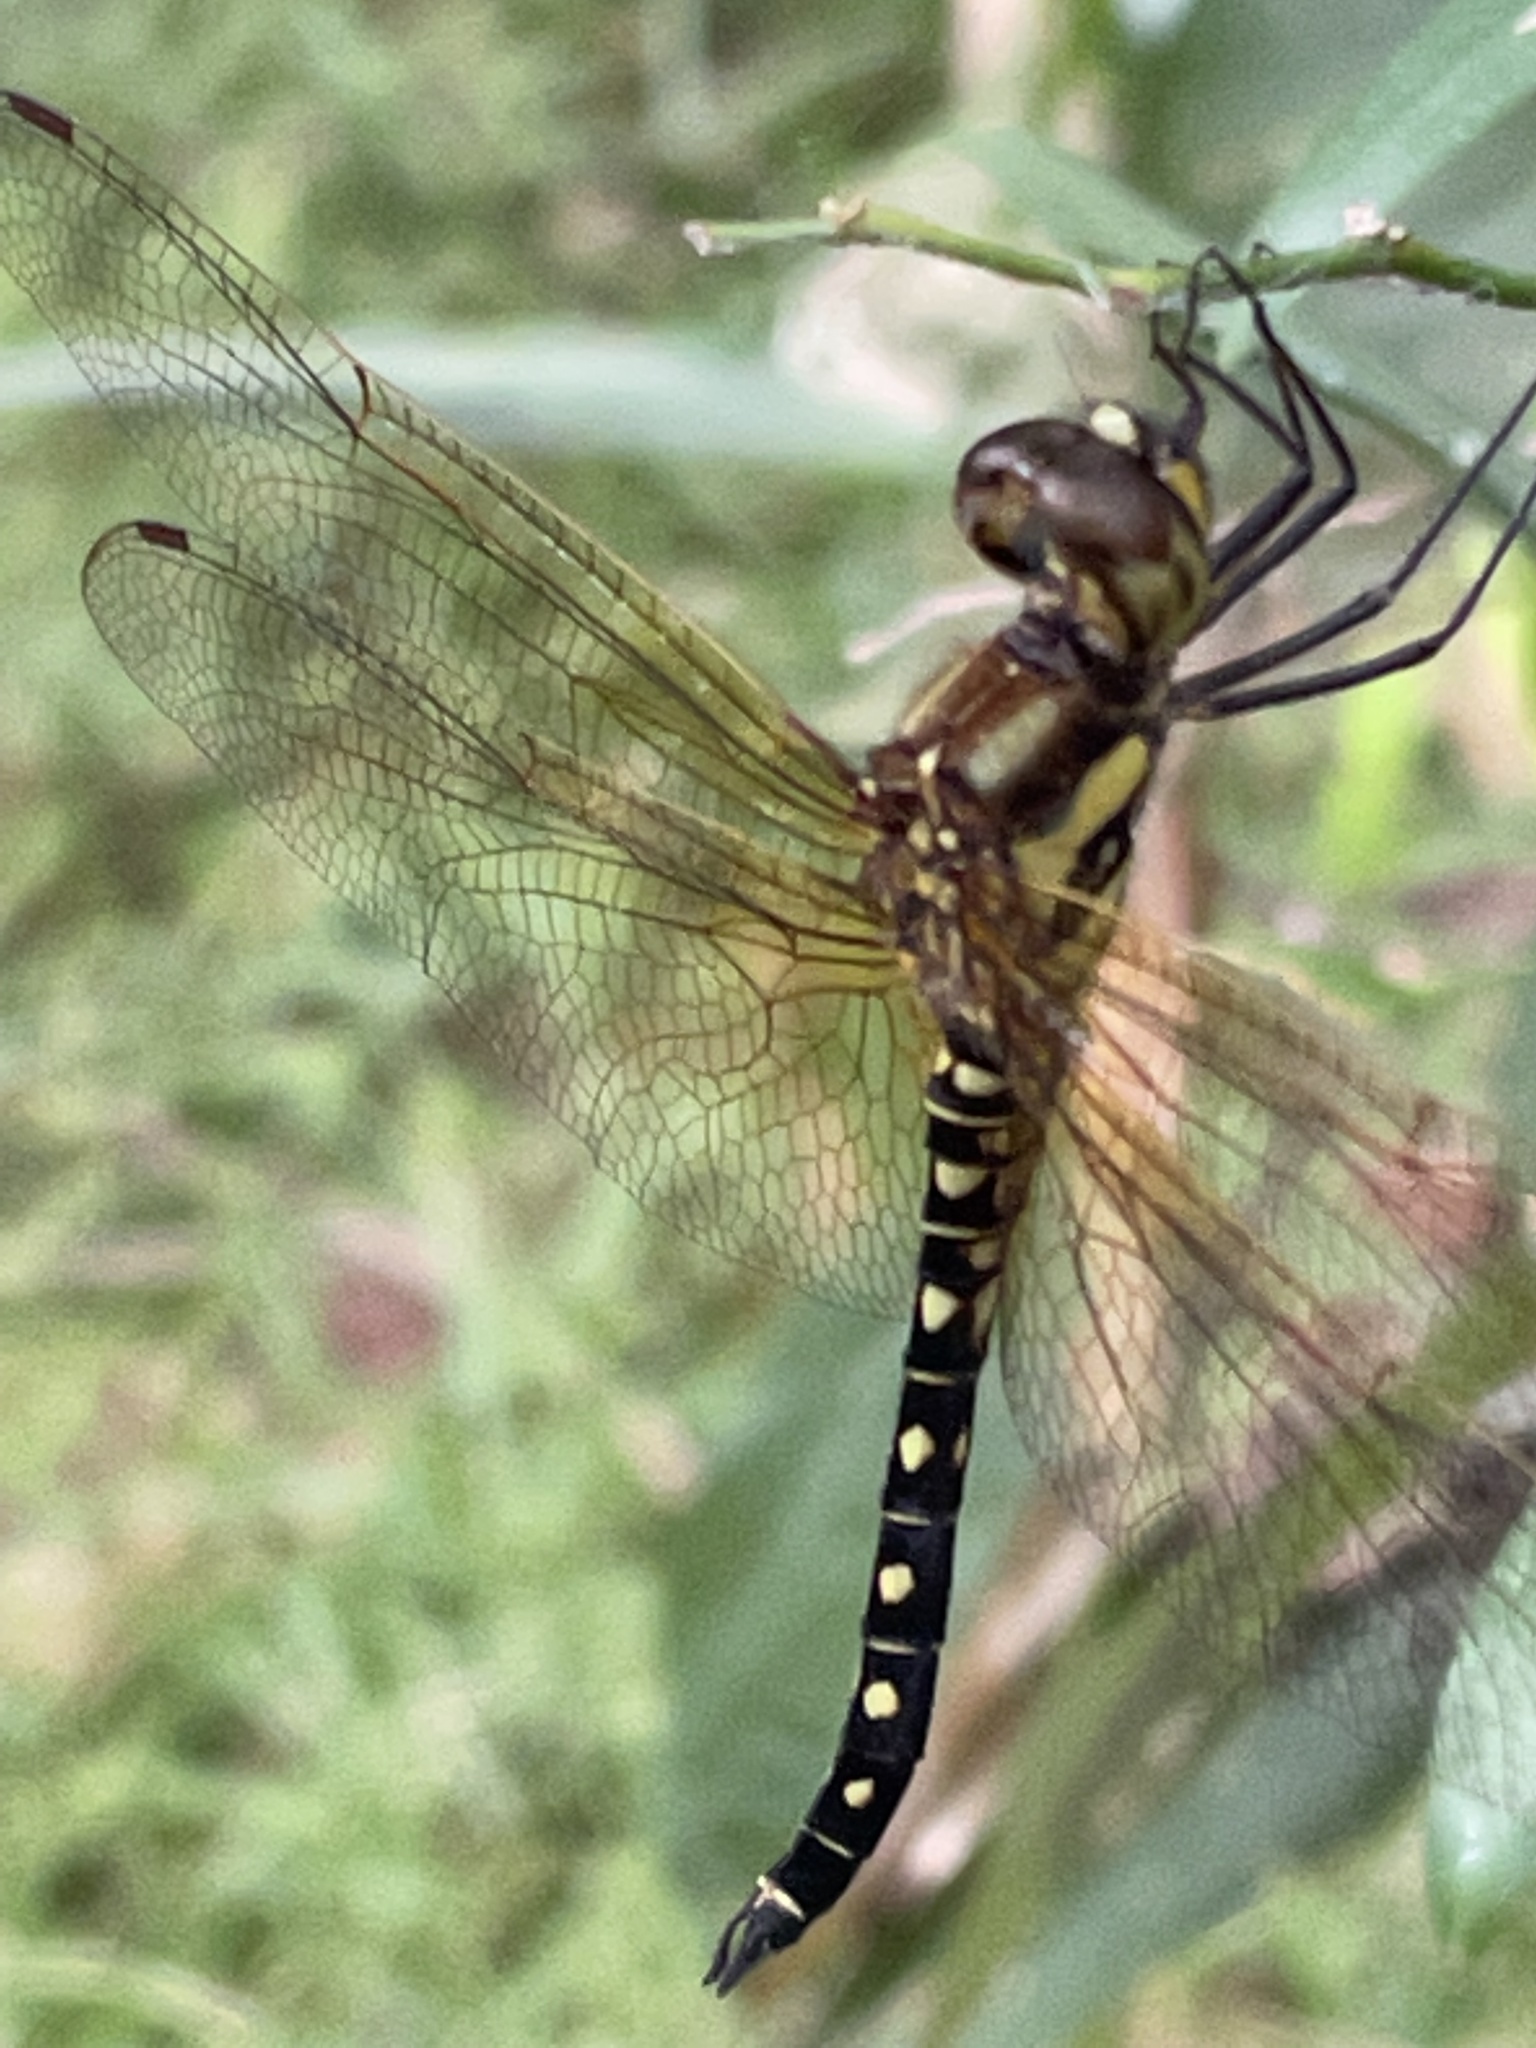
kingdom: Animalia
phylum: Arthropoda
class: Insecta
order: Odonata
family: Libellulidae
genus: Hydrobasileus
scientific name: Hydrobasileus brevistylus
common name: Water prince
